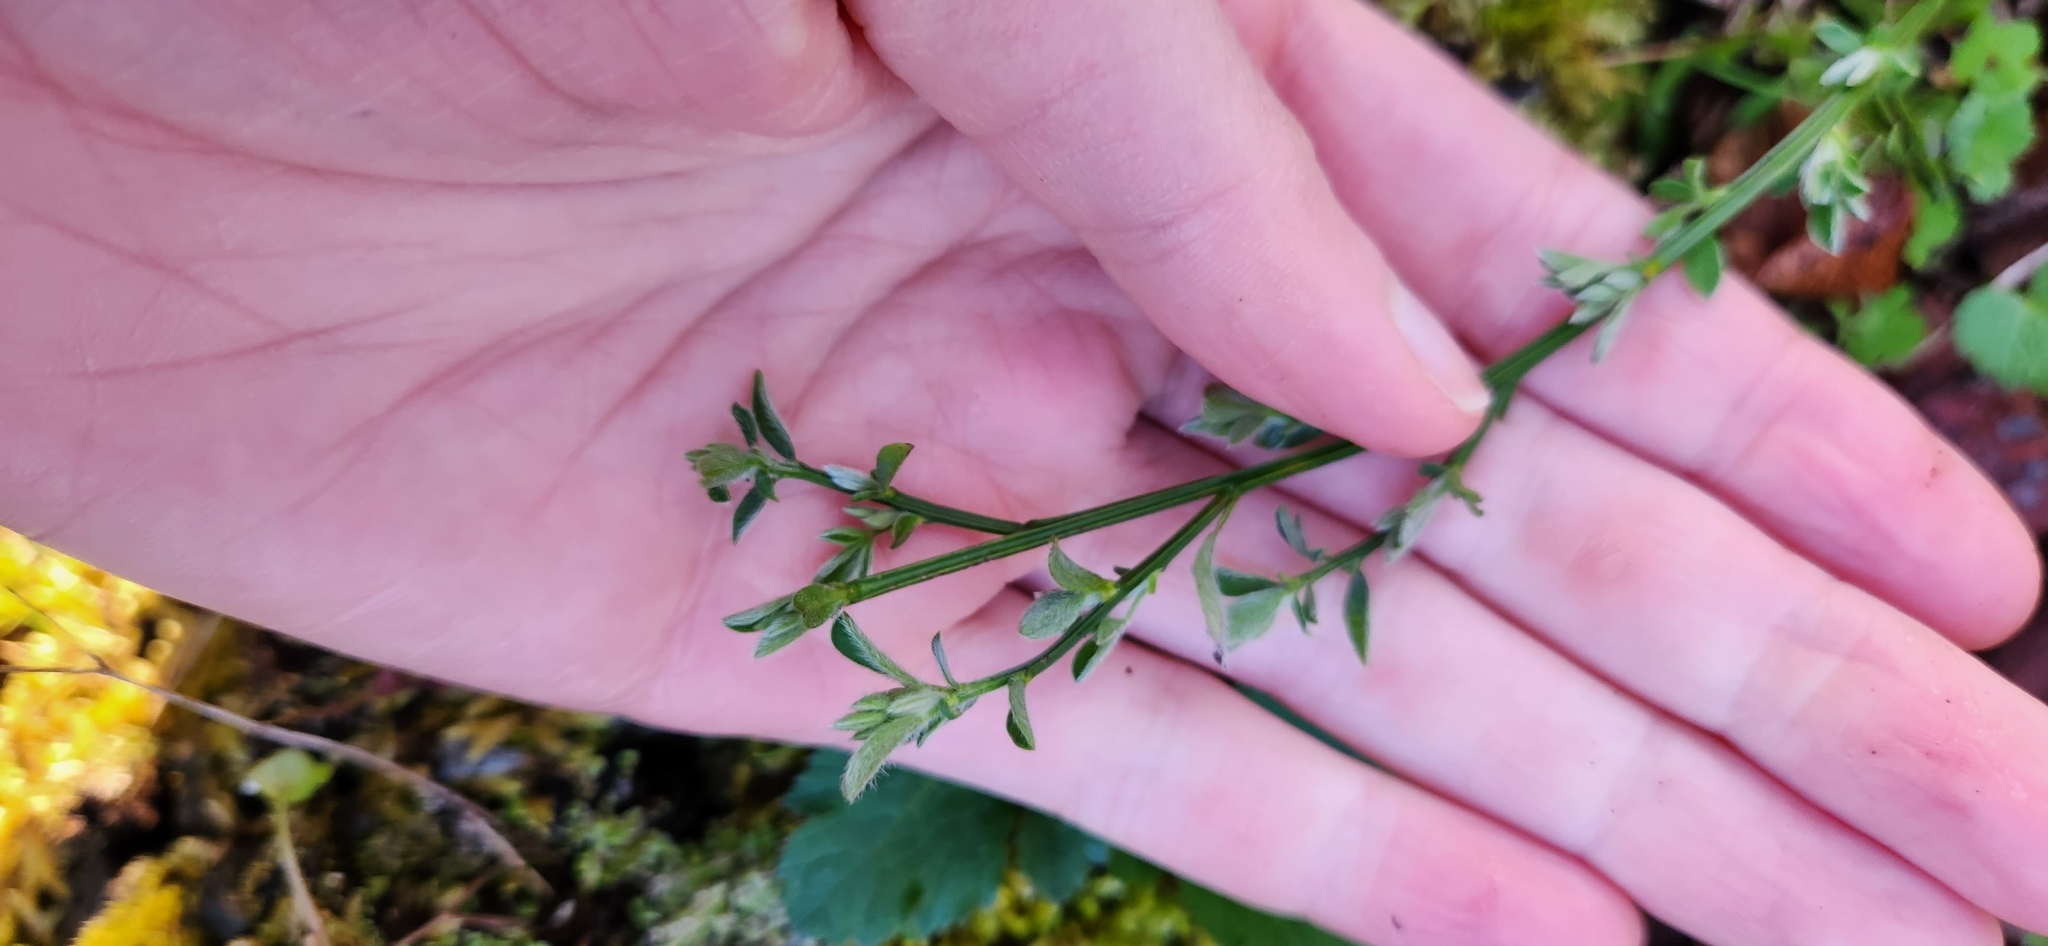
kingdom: Plantae
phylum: Tracheophyta
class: Magnoliopsida
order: Fabales
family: Fabaceae
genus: Cytisus
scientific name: Cytisus scoparius
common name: Scotch broom
